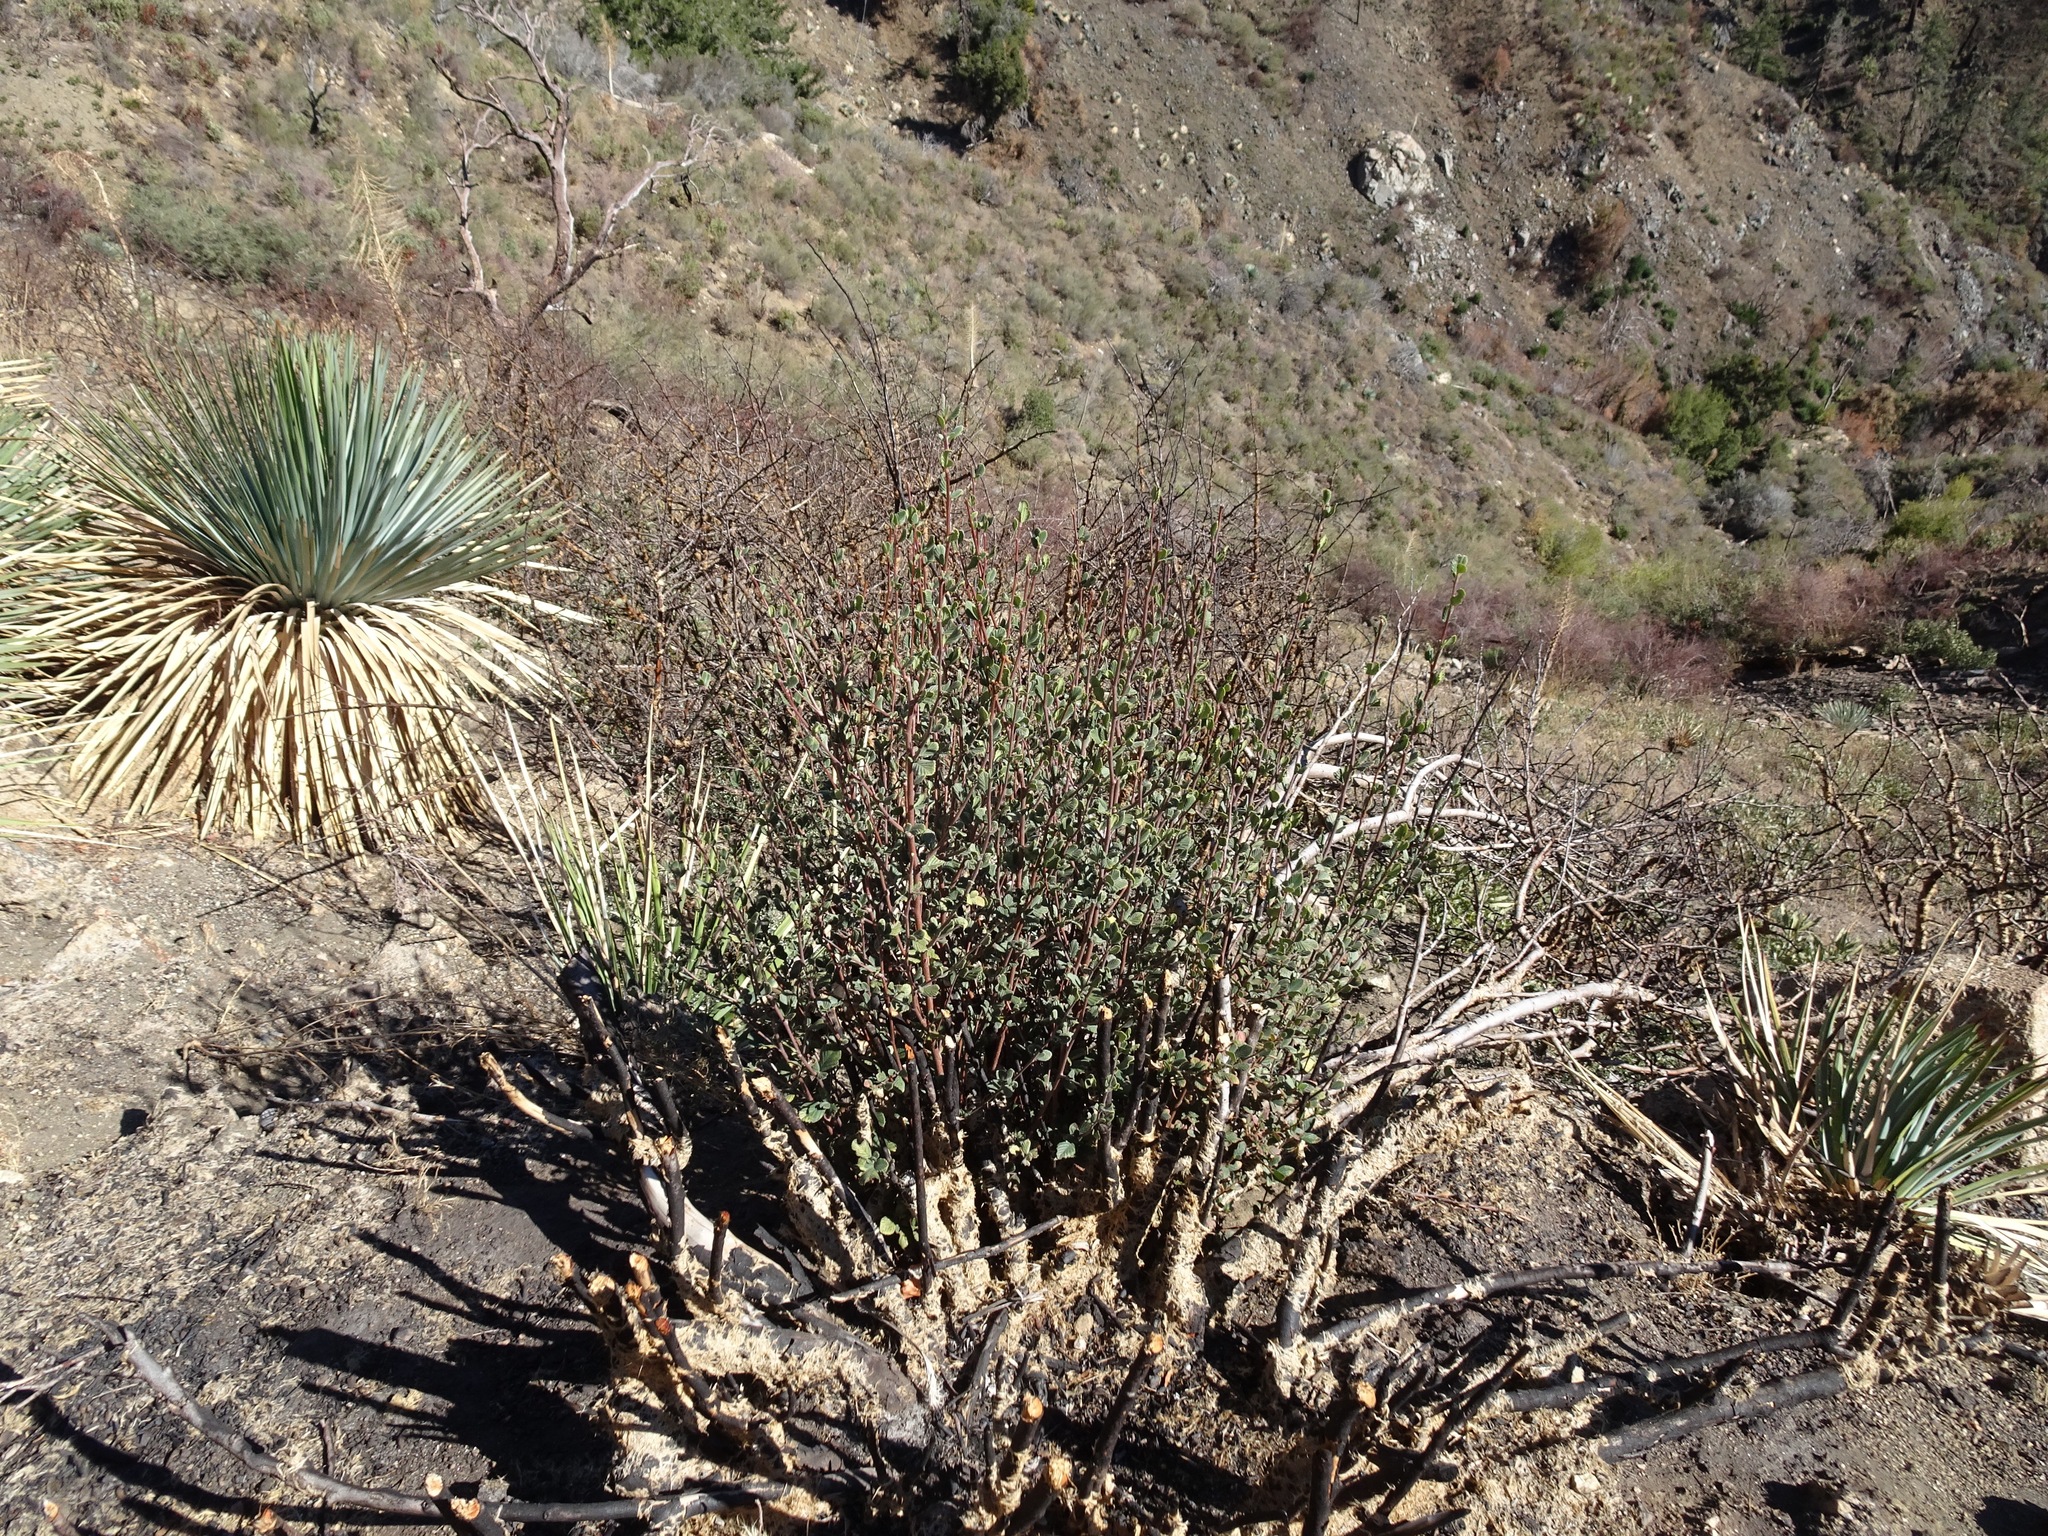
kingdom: Plantae
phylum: Tracheophyta
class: Magnoliopsida
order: Rosales
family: Rosaceae
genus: Cercocarpus
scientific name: Cercocarpus betuloides
